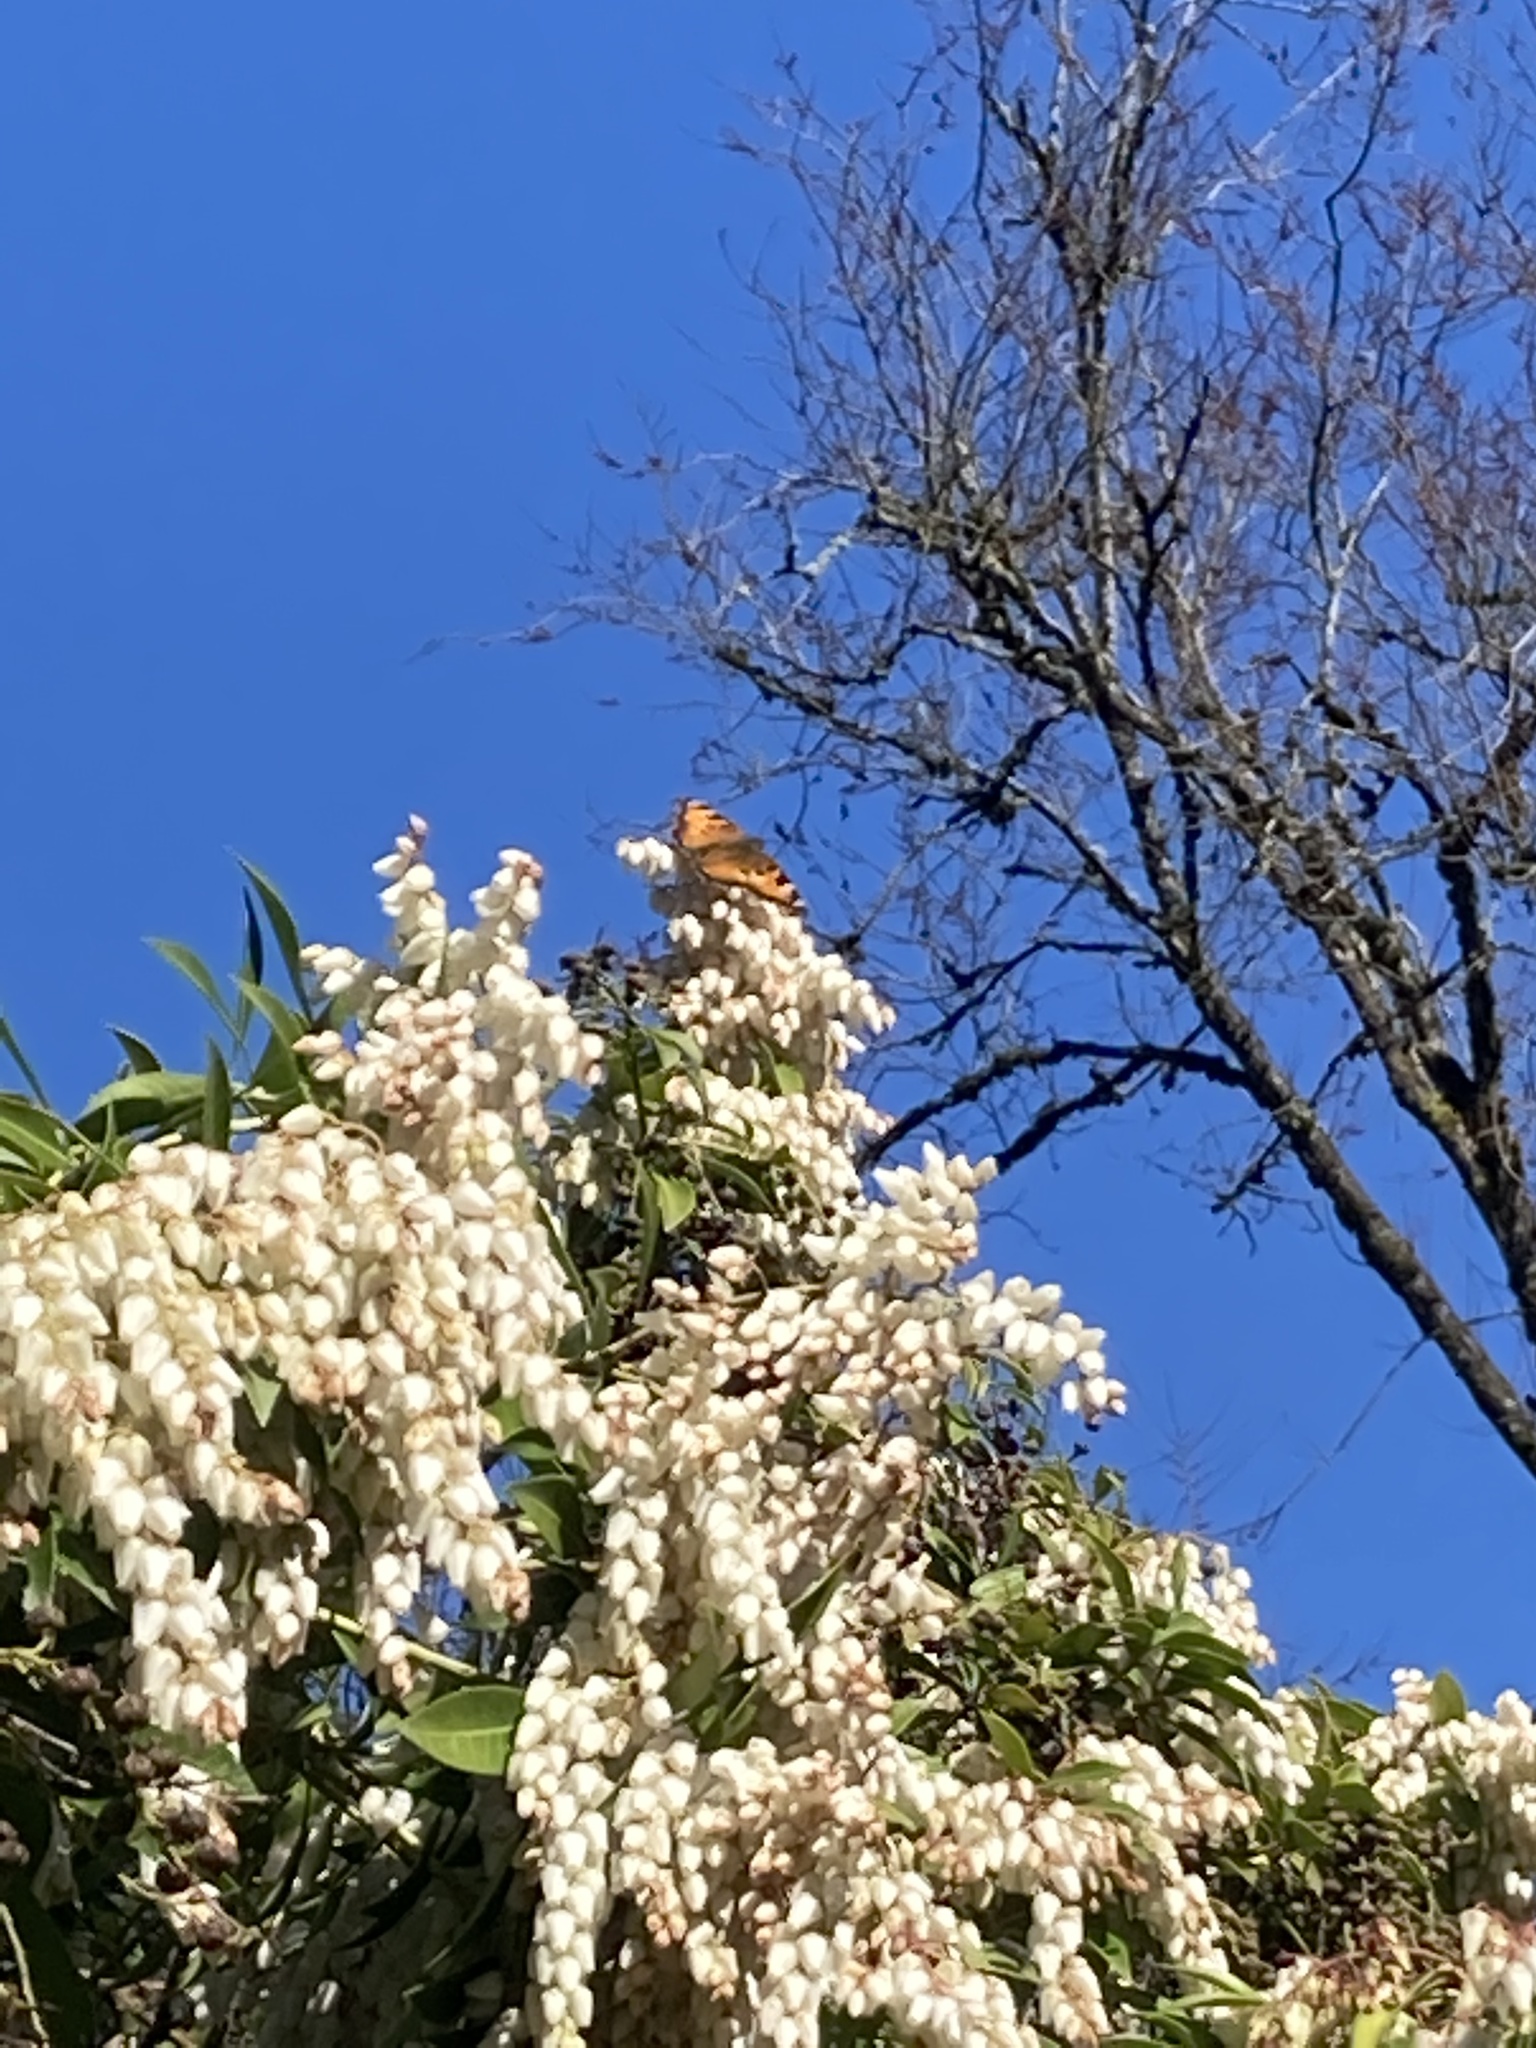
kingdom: Animalia
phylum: Arthropoda
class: Insecta
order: Lepidoptera
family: Nymphalidae
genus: Nymphalis
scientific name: Nymphalis californica
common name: California tortoiseshell
